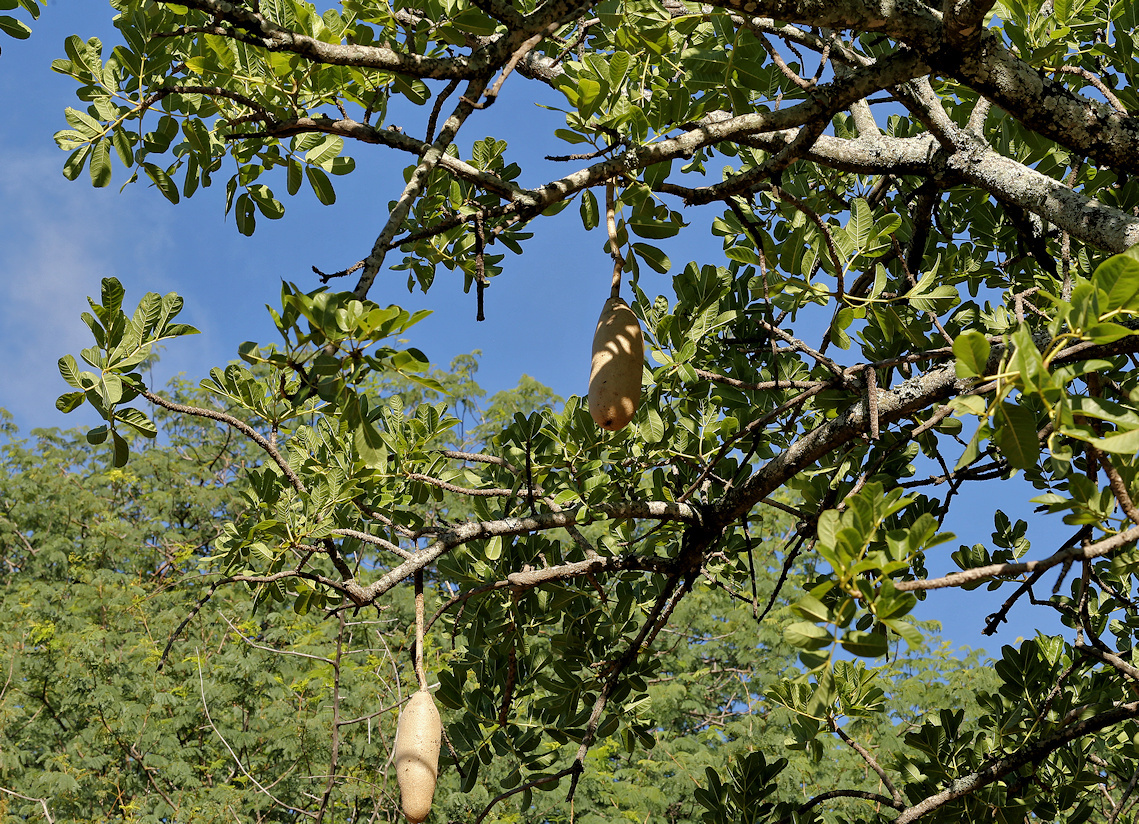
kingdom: Plantae
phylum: Tracheophyta
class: Magnoliopsida
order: Lamiales
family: Bignoniaceae
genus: Kigelia
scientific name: Kigelia africana
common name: Sausage tree
